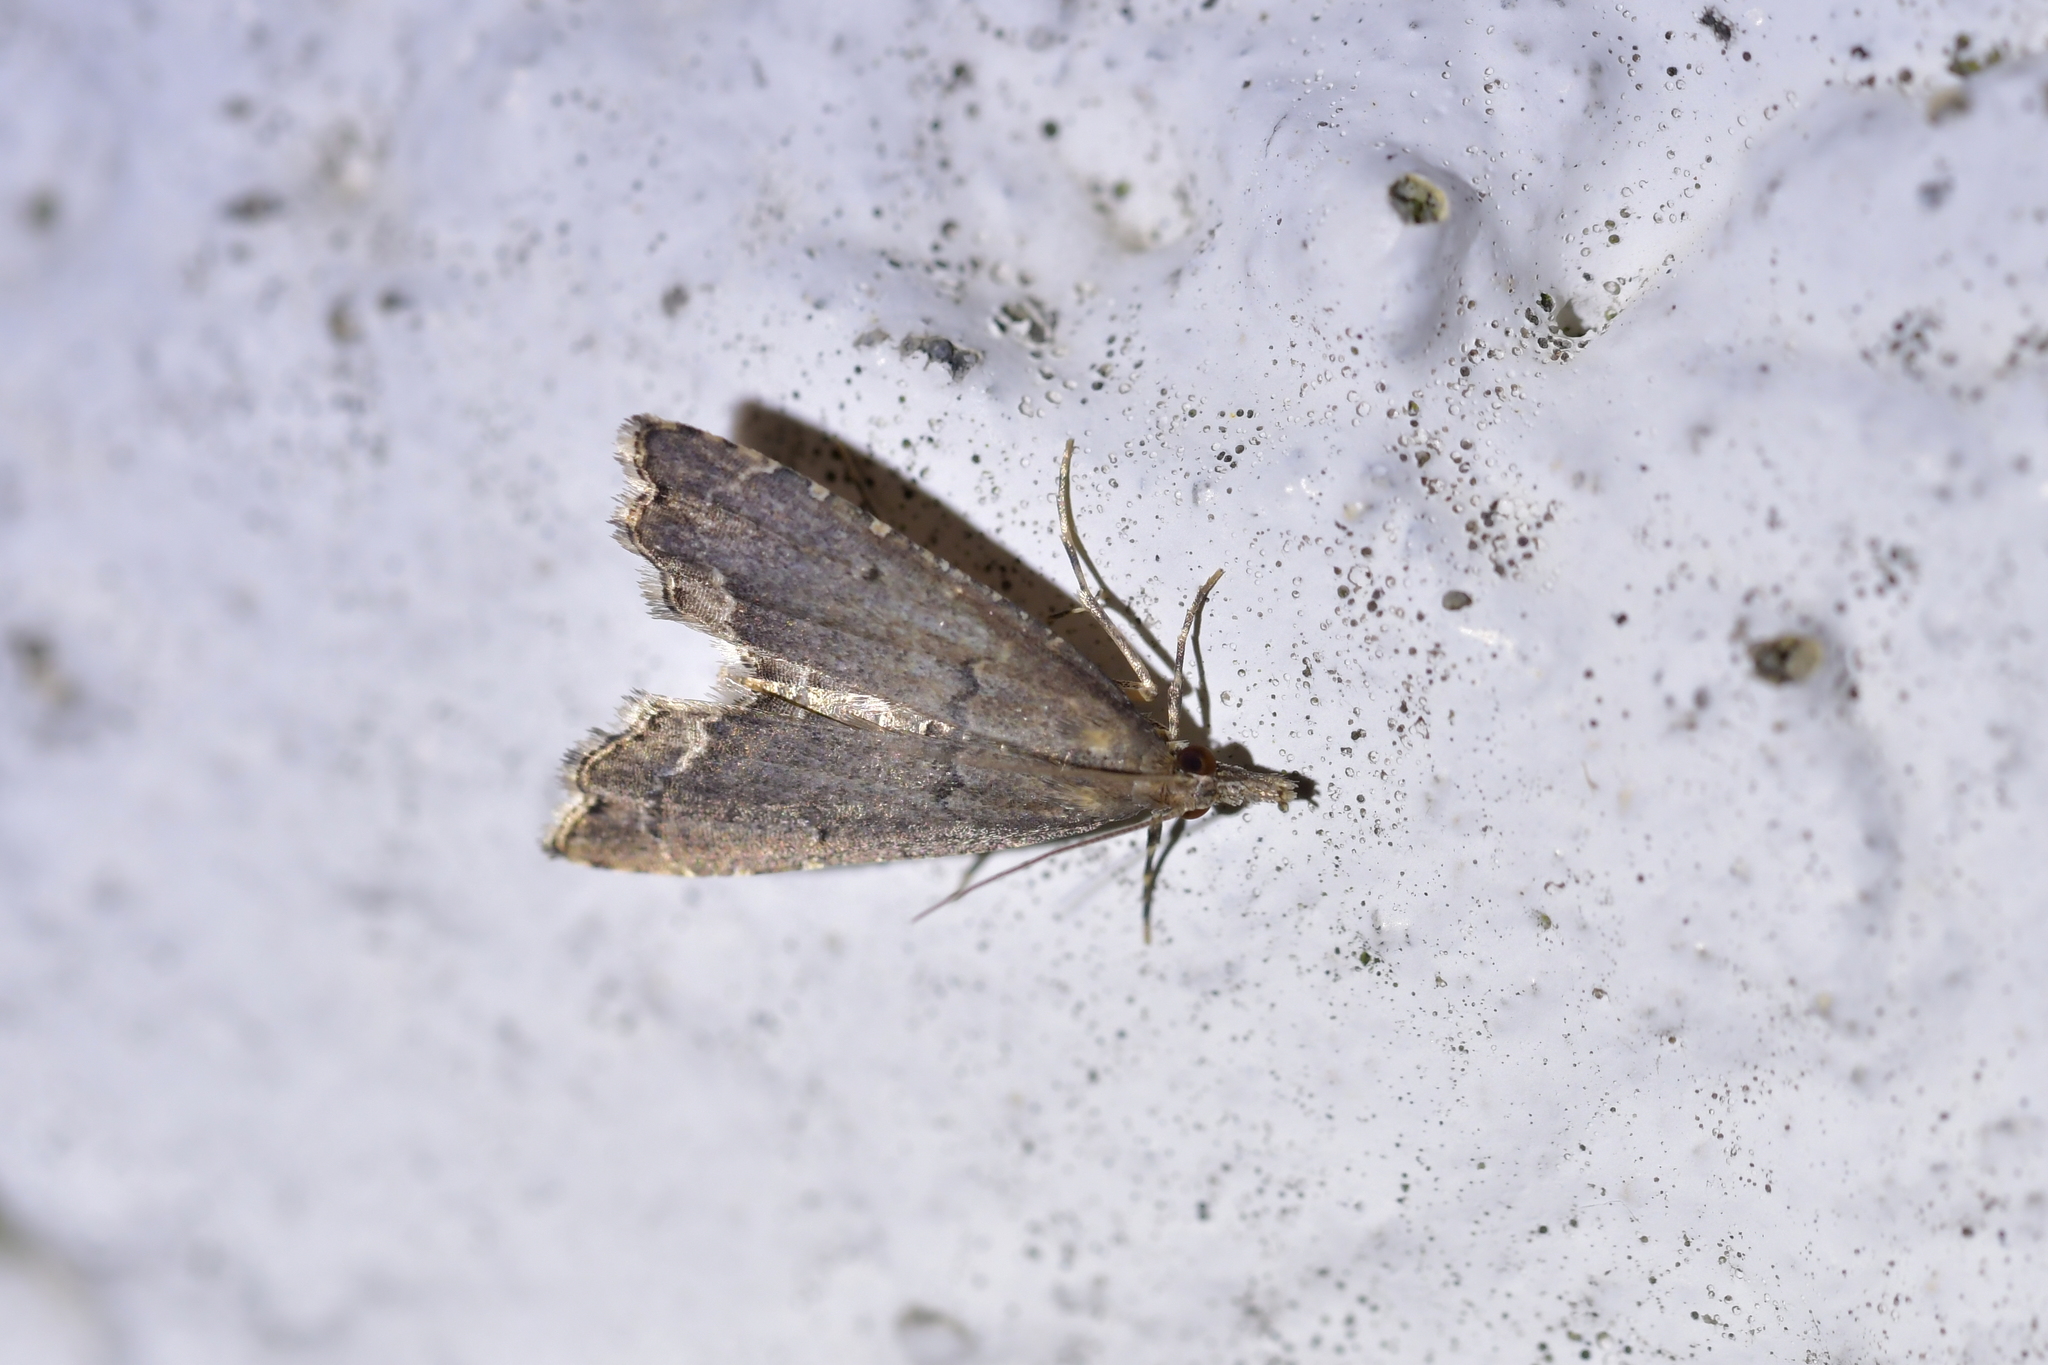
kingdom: Animalia
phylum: Arthropoda
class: Insecta
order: Lepidoptera
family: Crambidae
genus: Diplopseustis
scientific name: Diplopseustis perieresalis
